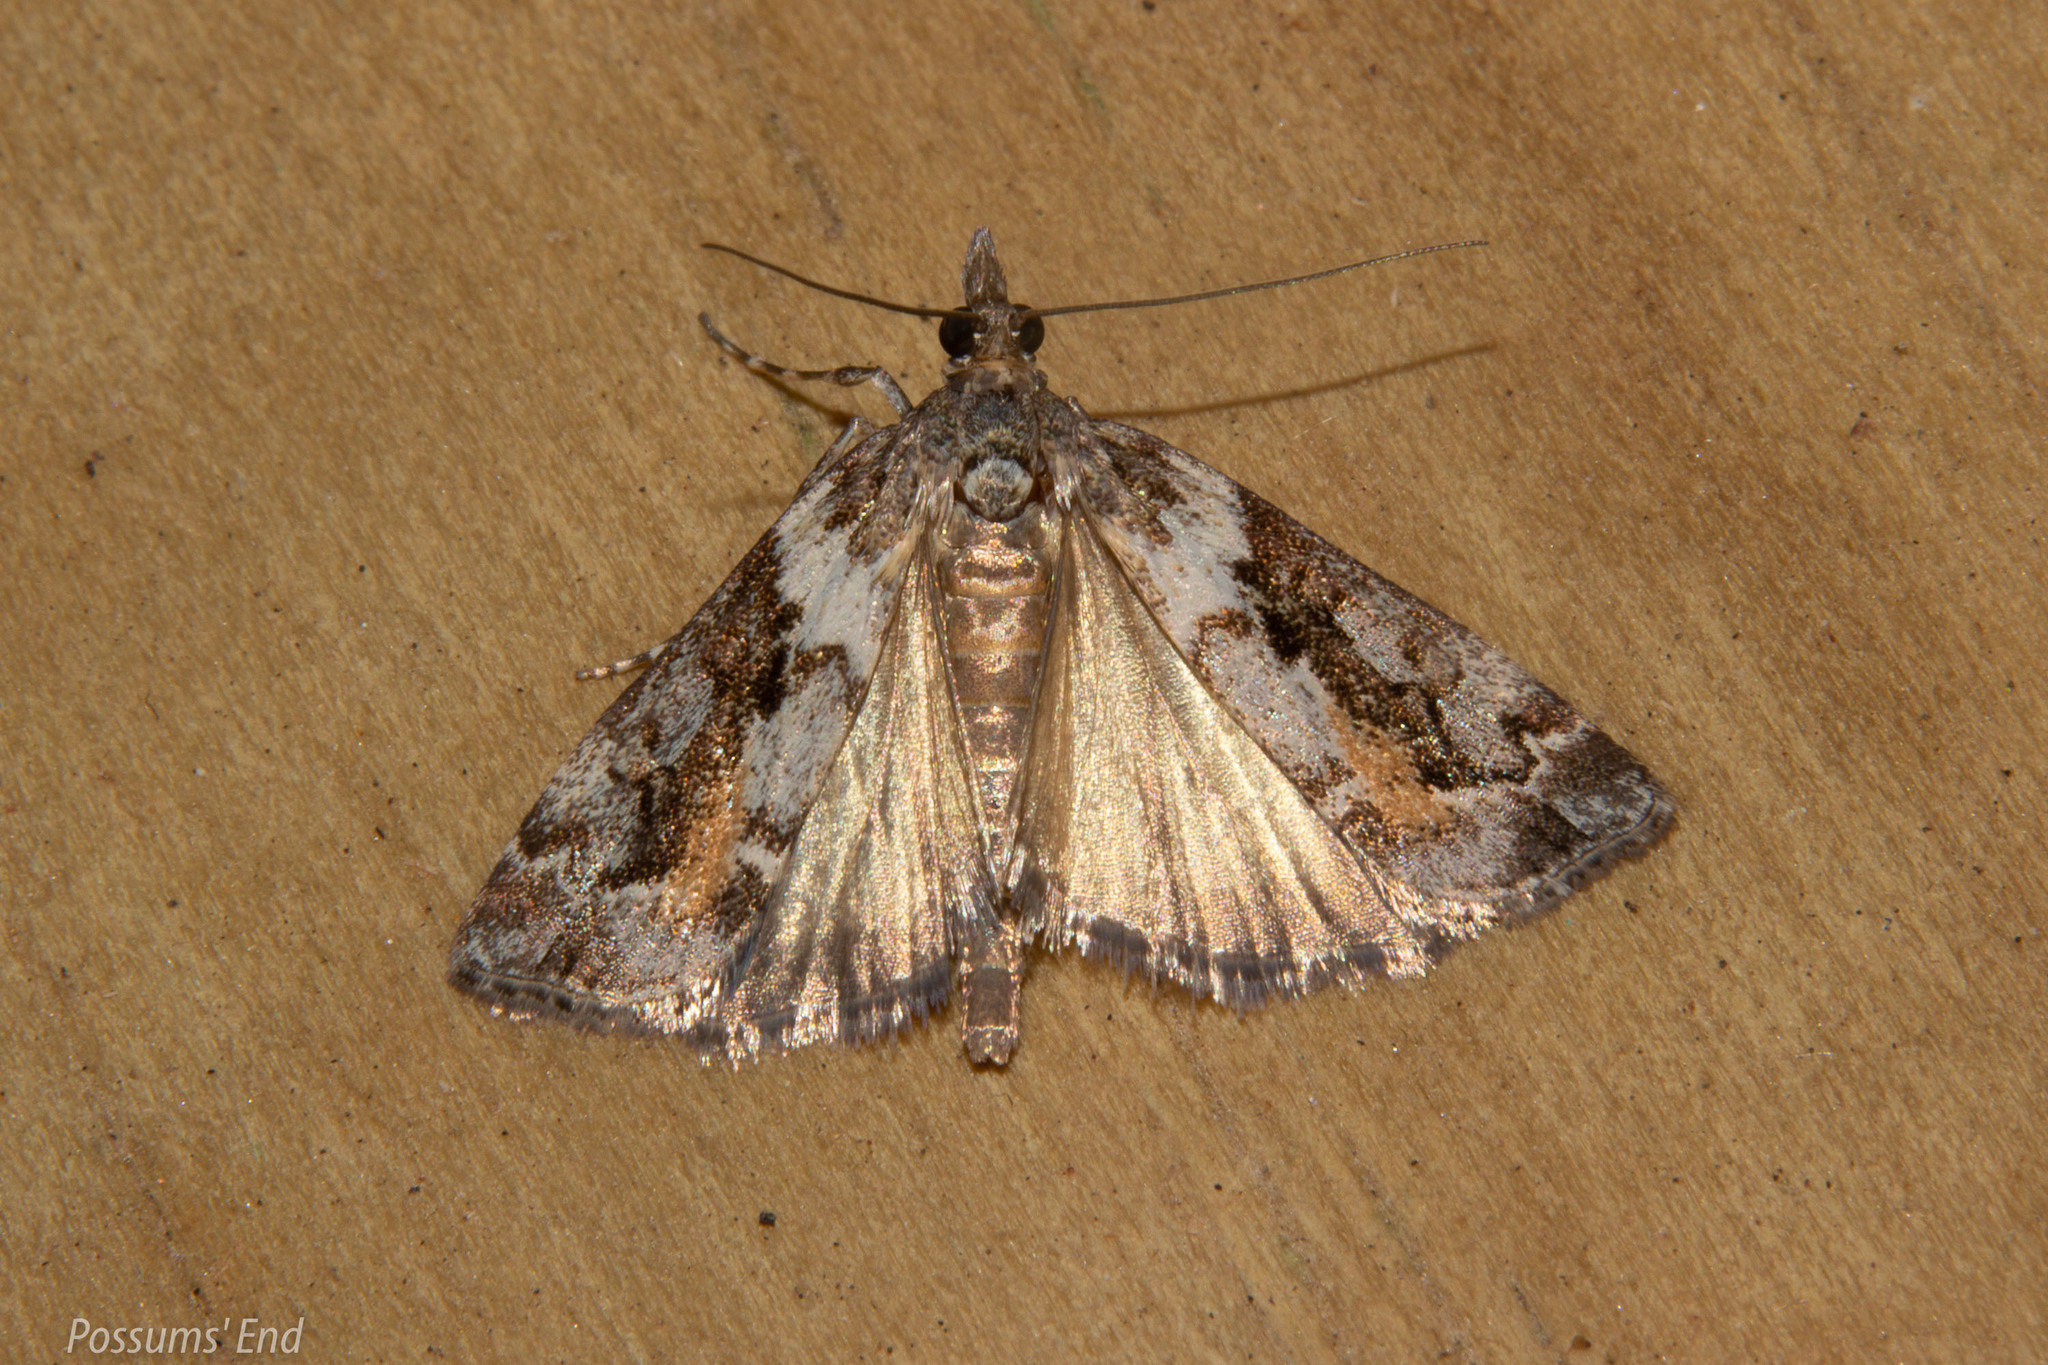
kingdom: Animalia
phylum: Arthropoda
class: Insecta
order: Lepidoptera
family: Crambidae
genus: Eudonia
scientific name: Eudonia submarginalis
